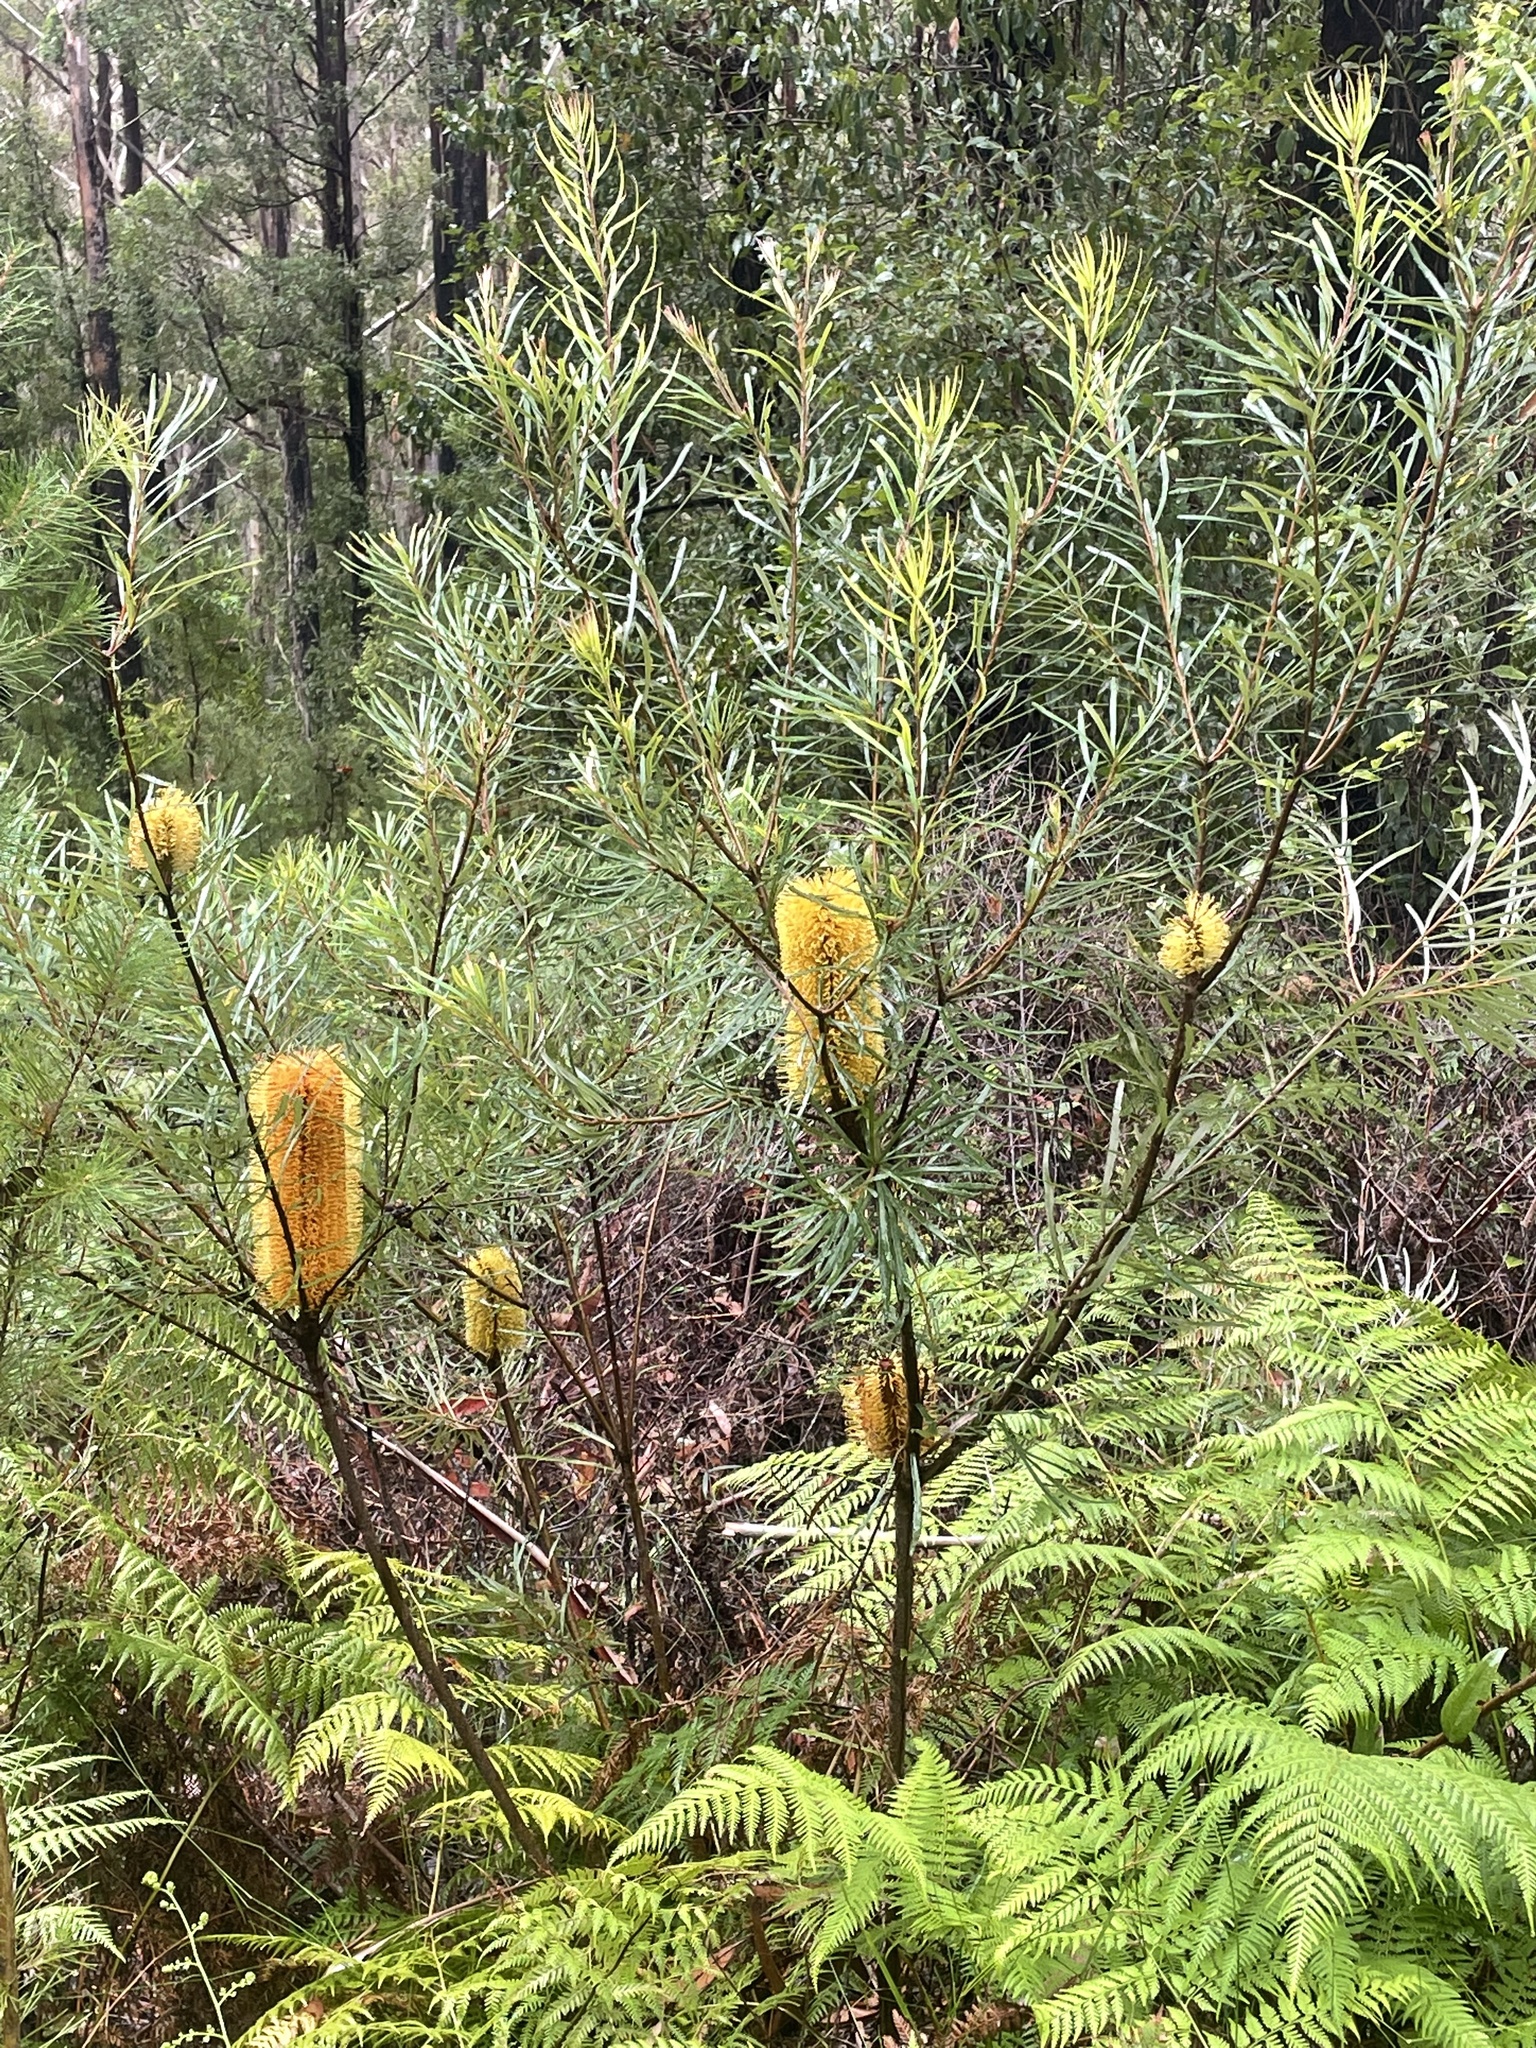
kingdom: Plantae
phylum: Tracheophyta
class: Magnoliopsida
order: Proteales
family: Proteaceae
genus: Banksia
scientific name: Banksia spinulosa
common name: Hairpin banksia
